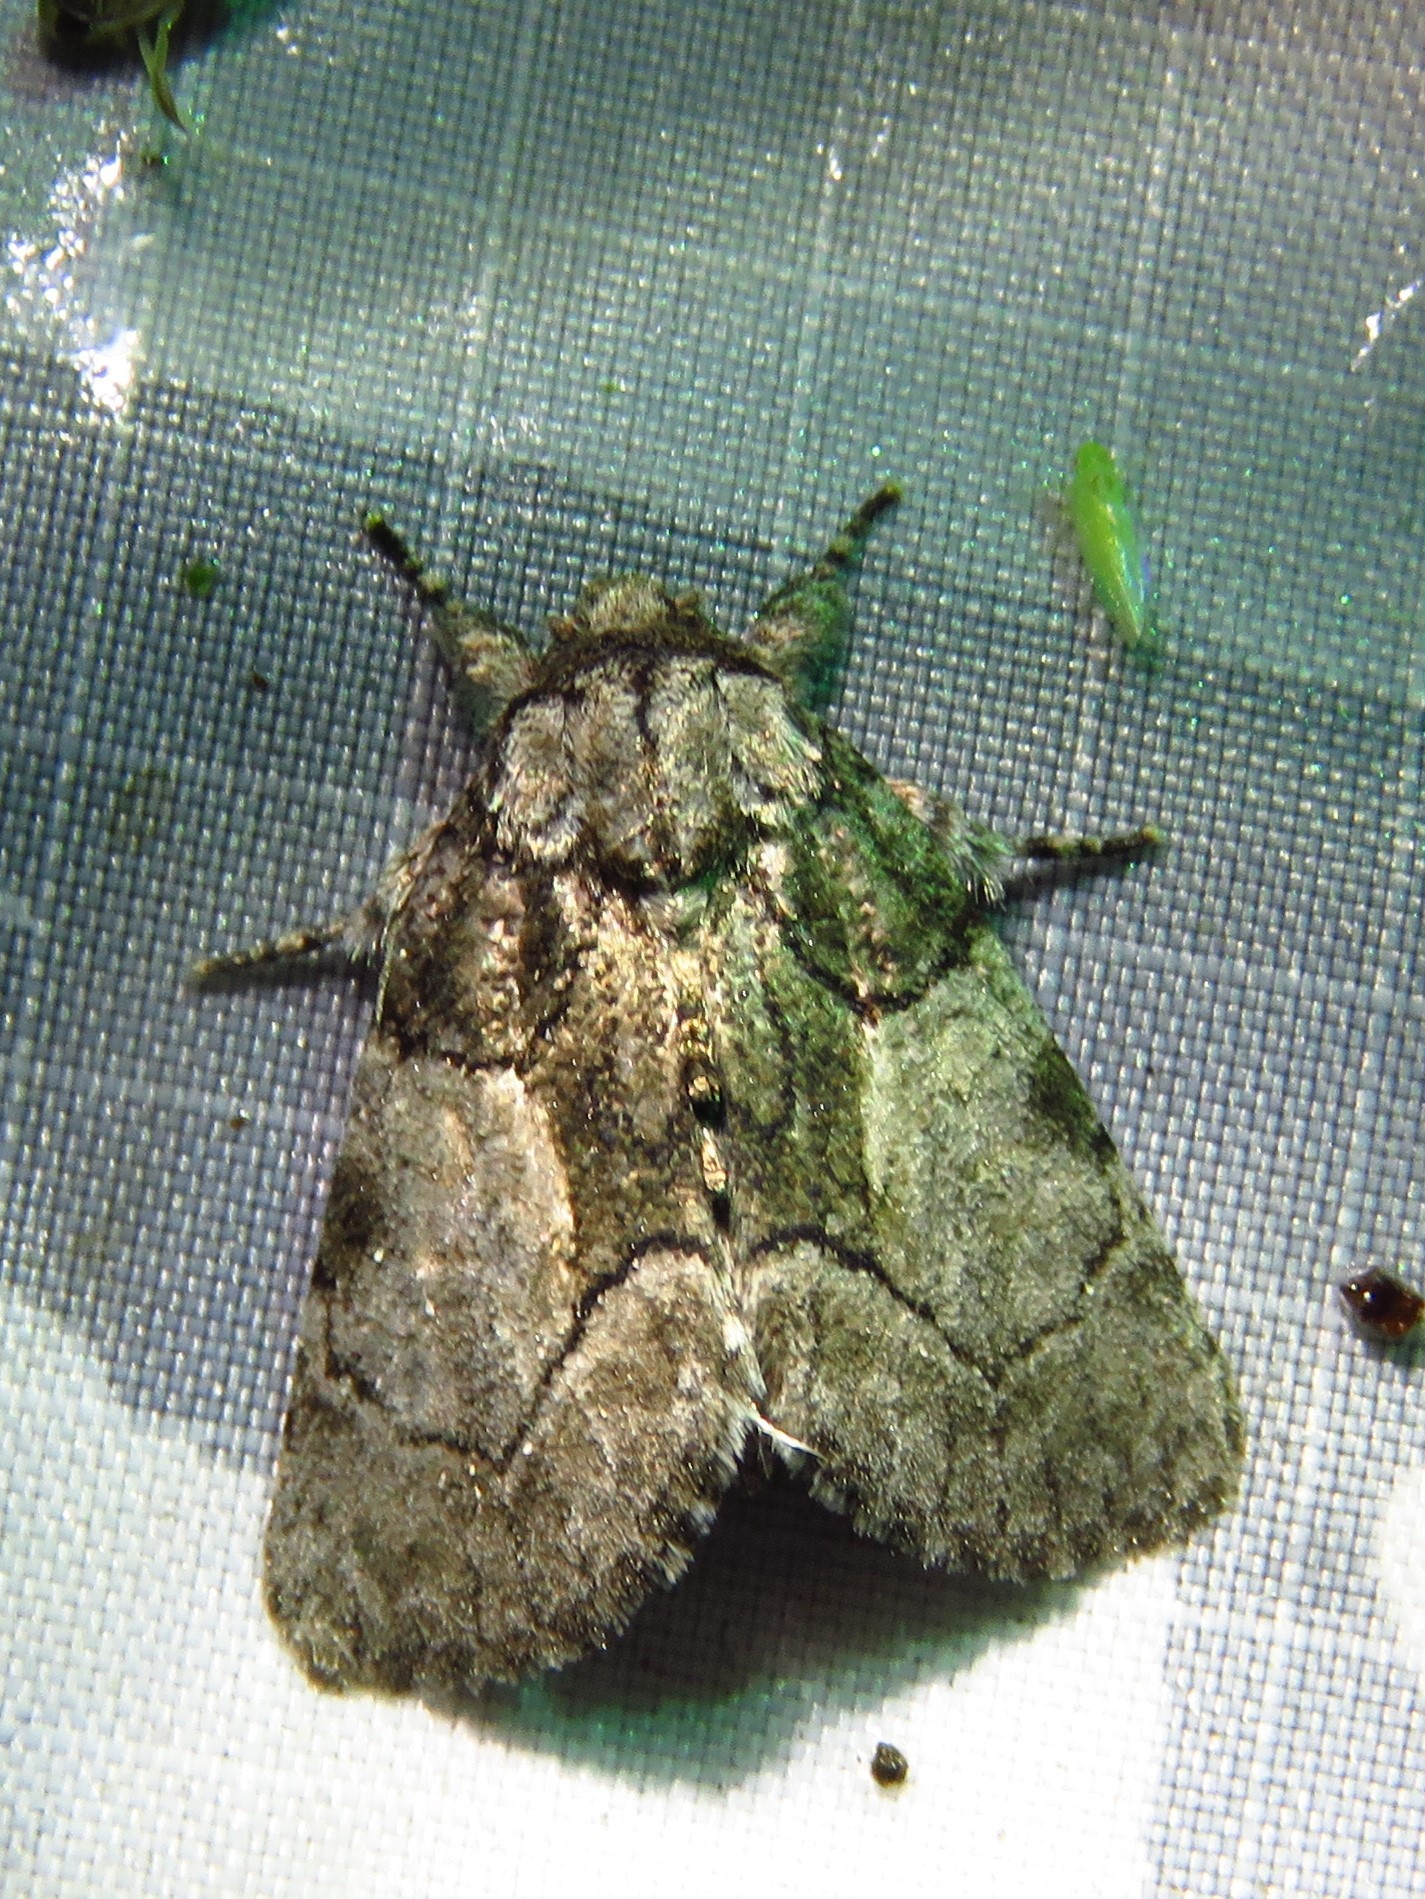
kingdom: Animalia
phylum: Arthropoda
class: Insecta
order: Lepidoptera
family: Noctuidae
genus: Raphia
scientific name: Raphia frater
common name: Brother
